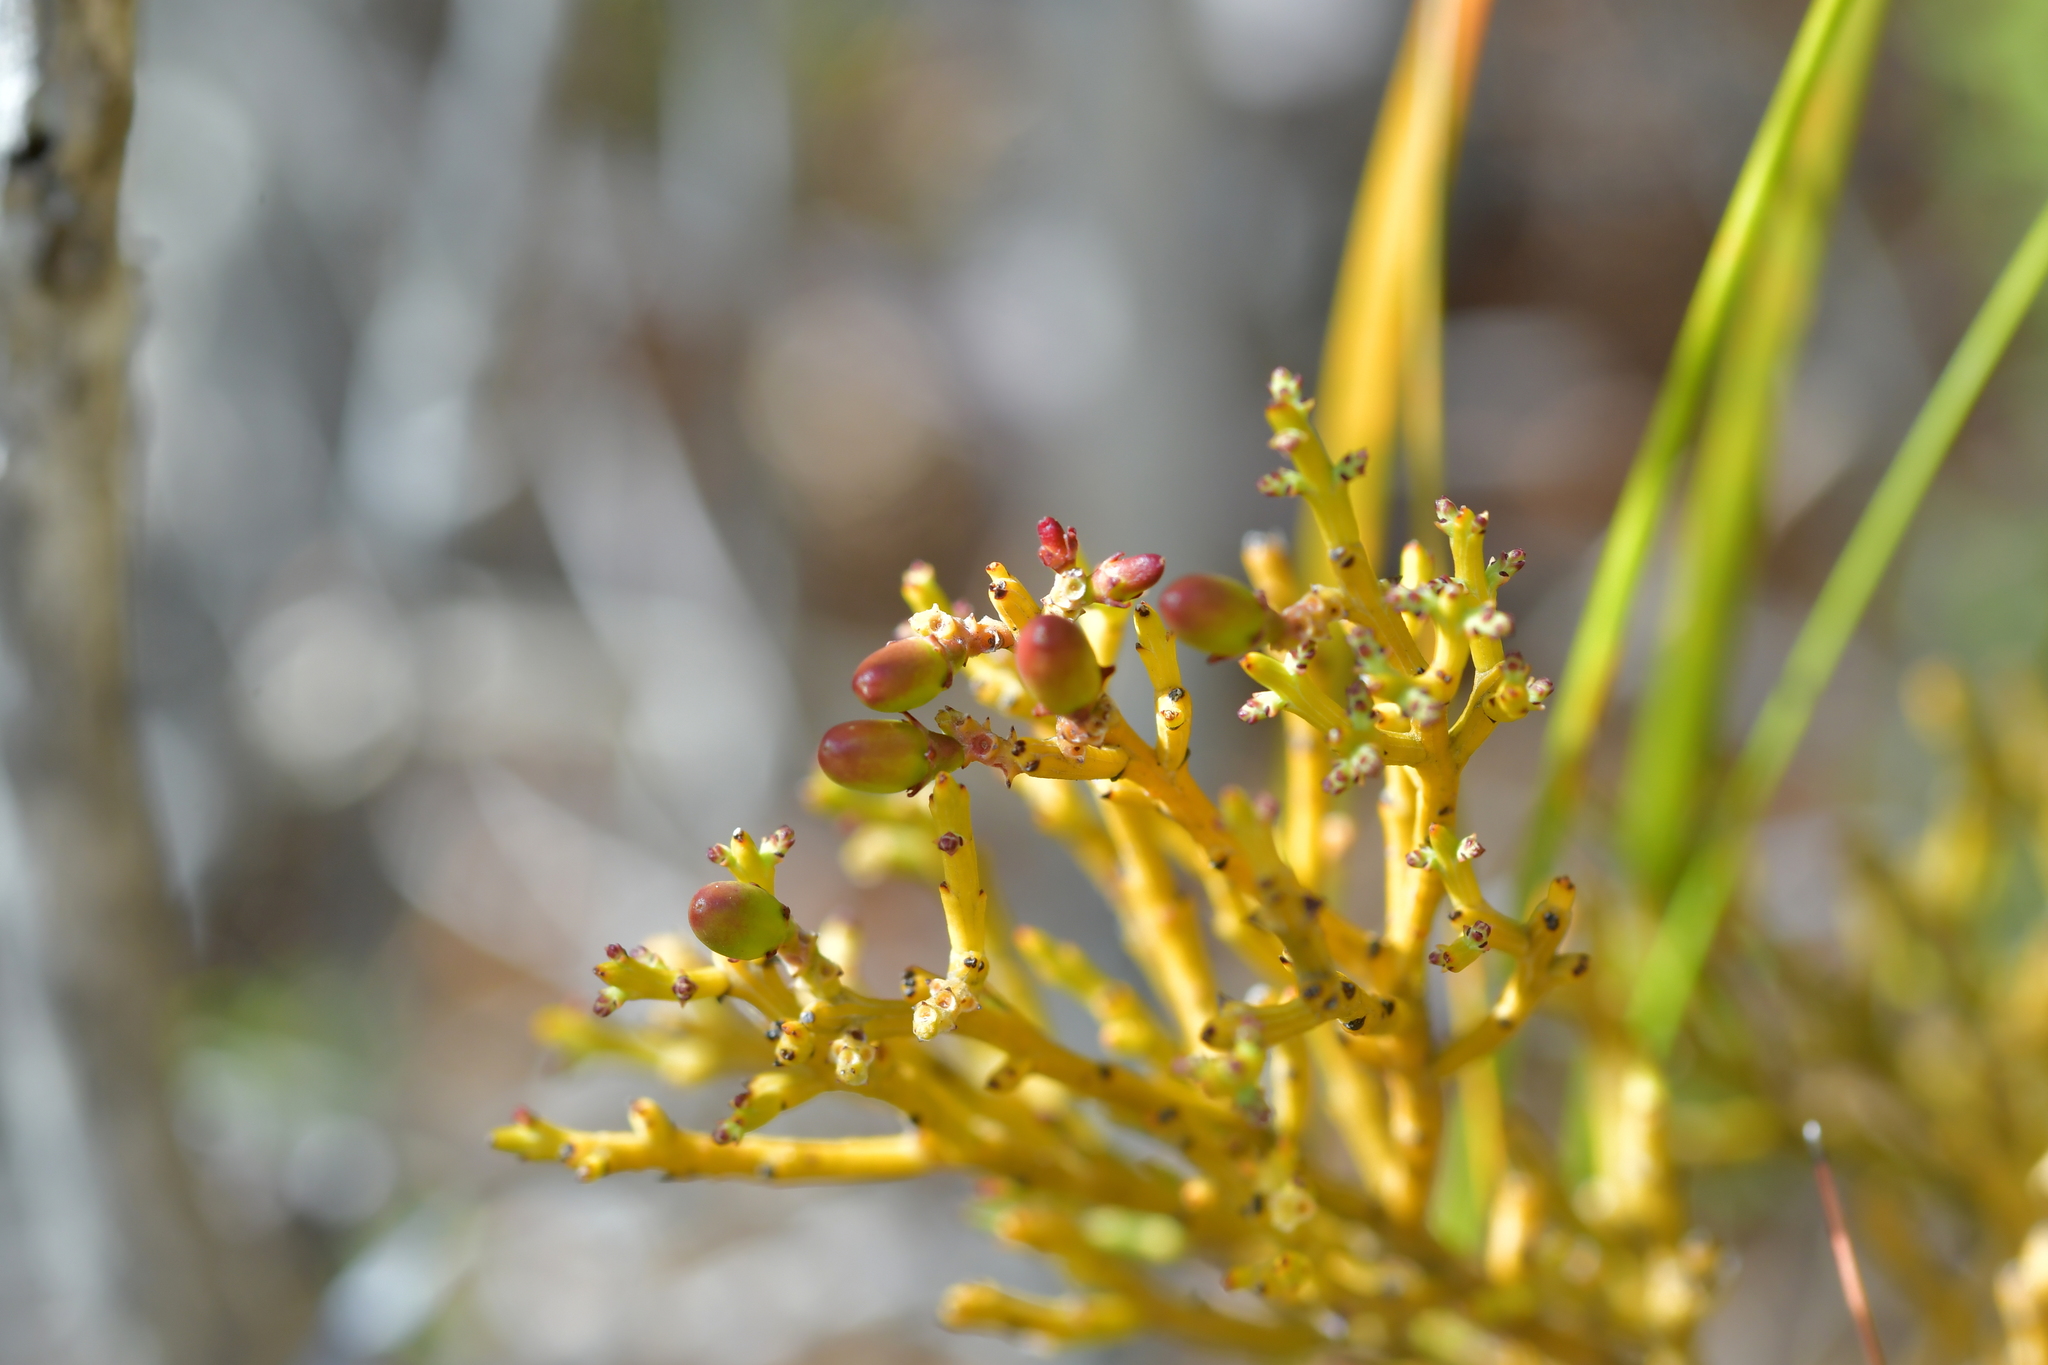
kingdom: Plantae
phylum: Tracheophyta
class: Magnoliopsida
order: Santalales
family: Santalaceae
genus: Exocarpos
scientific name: Exocarpos bidwillii
